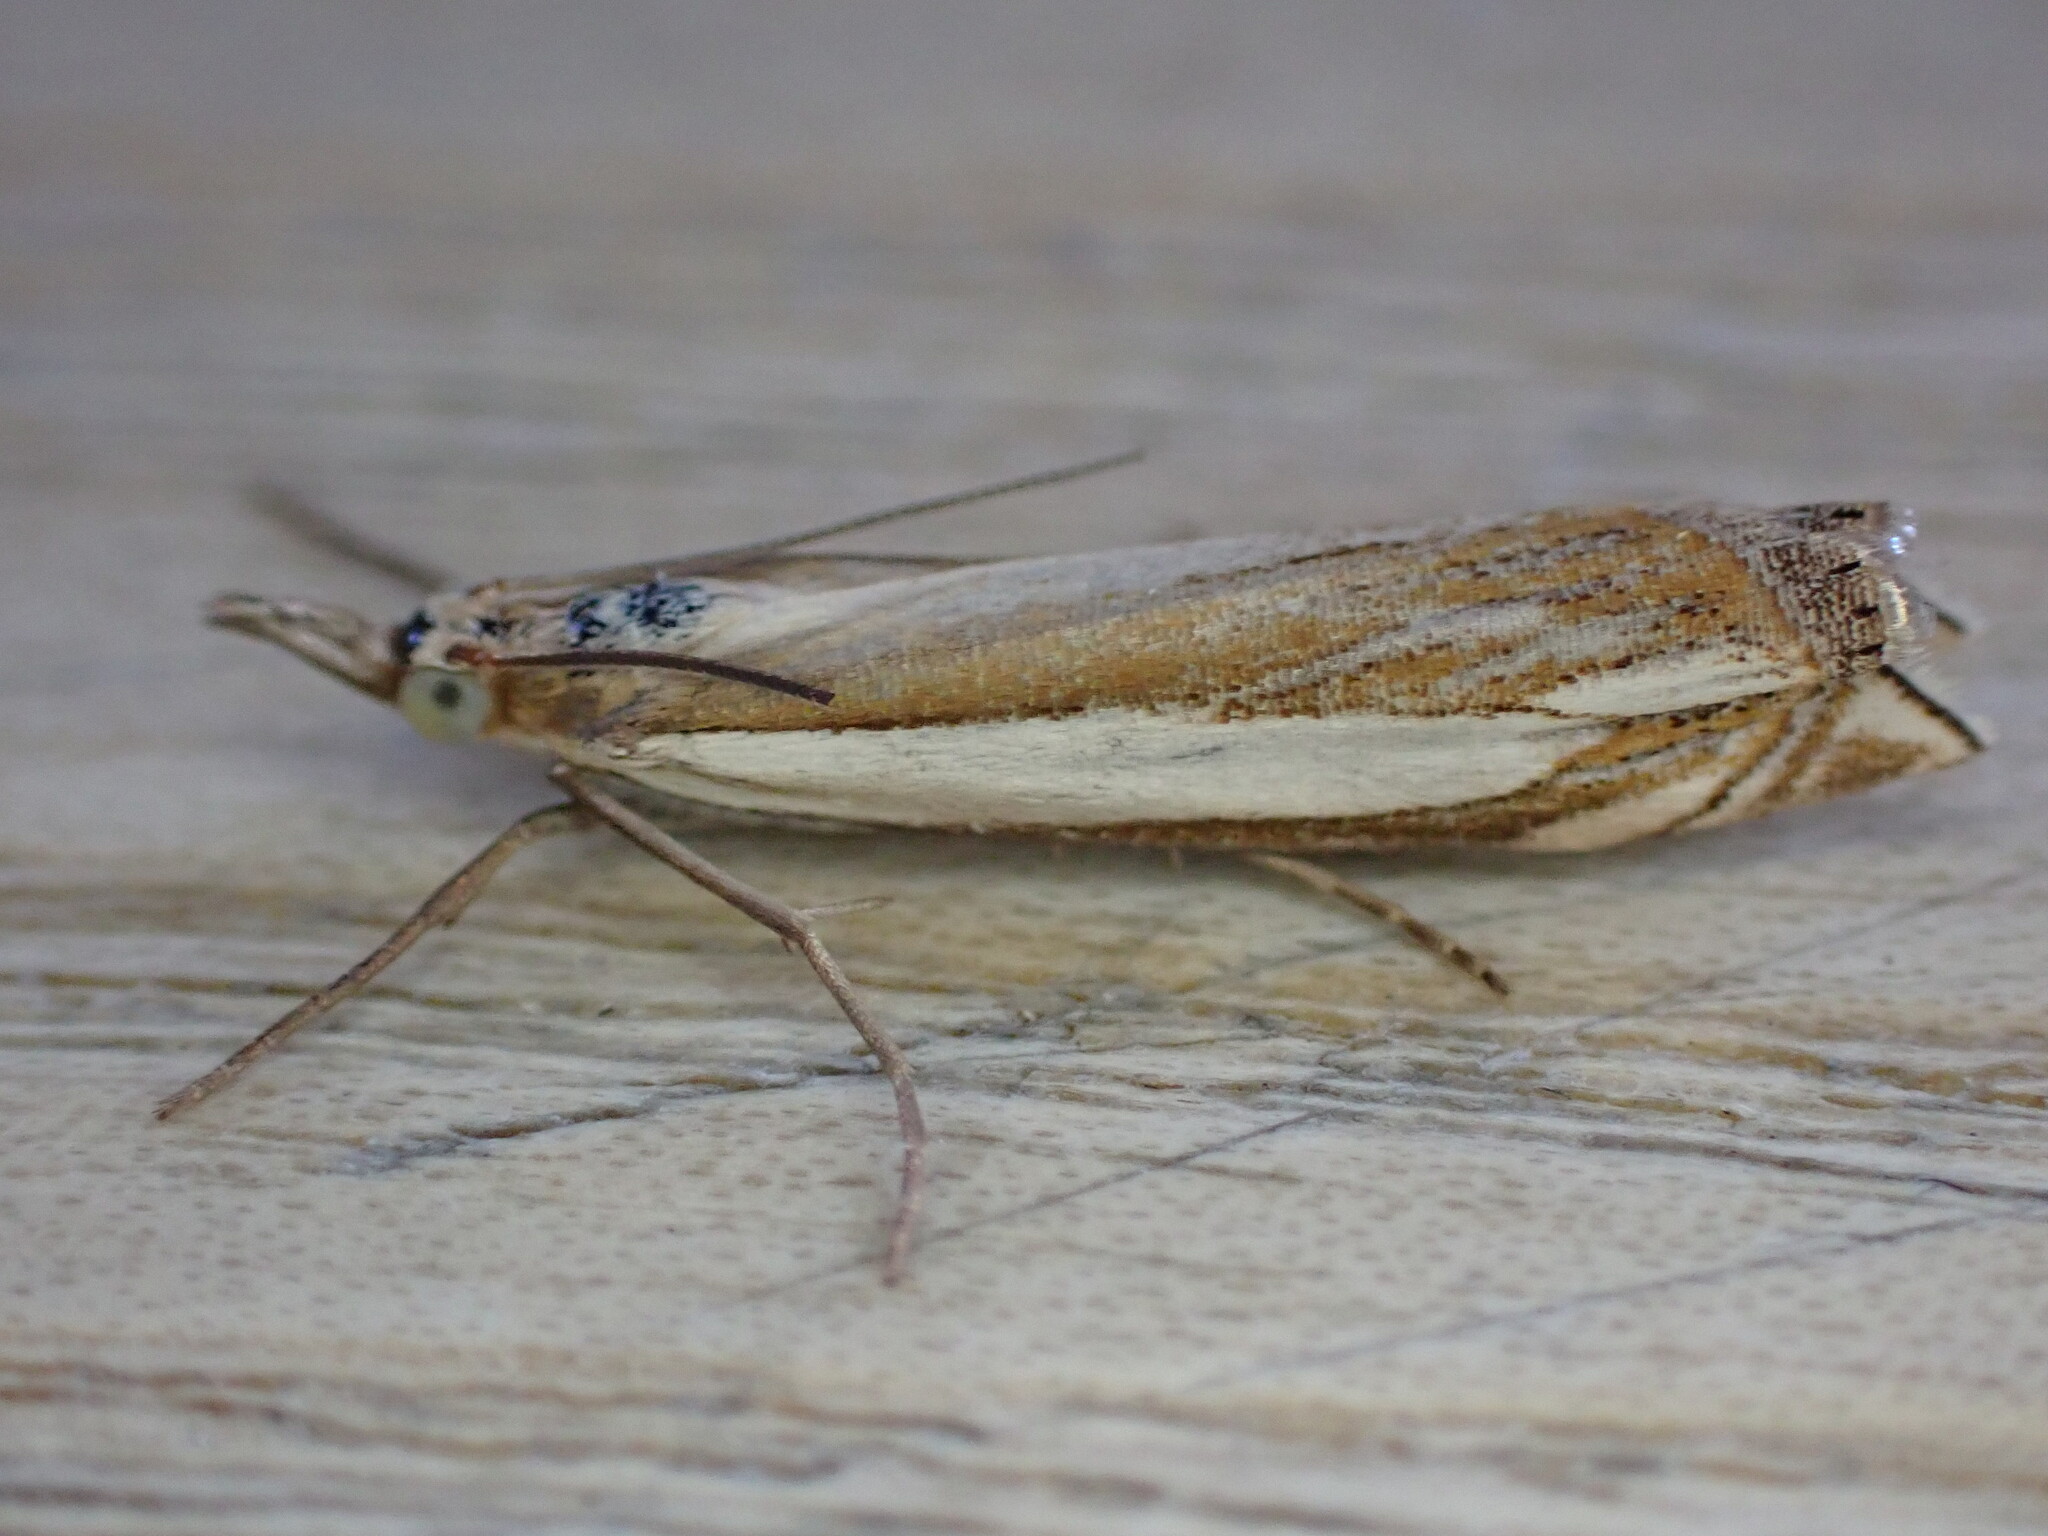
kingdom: Animalia
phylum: Arthropoda
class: Insecta
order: Lepidoptera
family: Crambidae
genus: Crambus
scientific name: Crambus pascuella
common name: Inlaid grass-veneer
